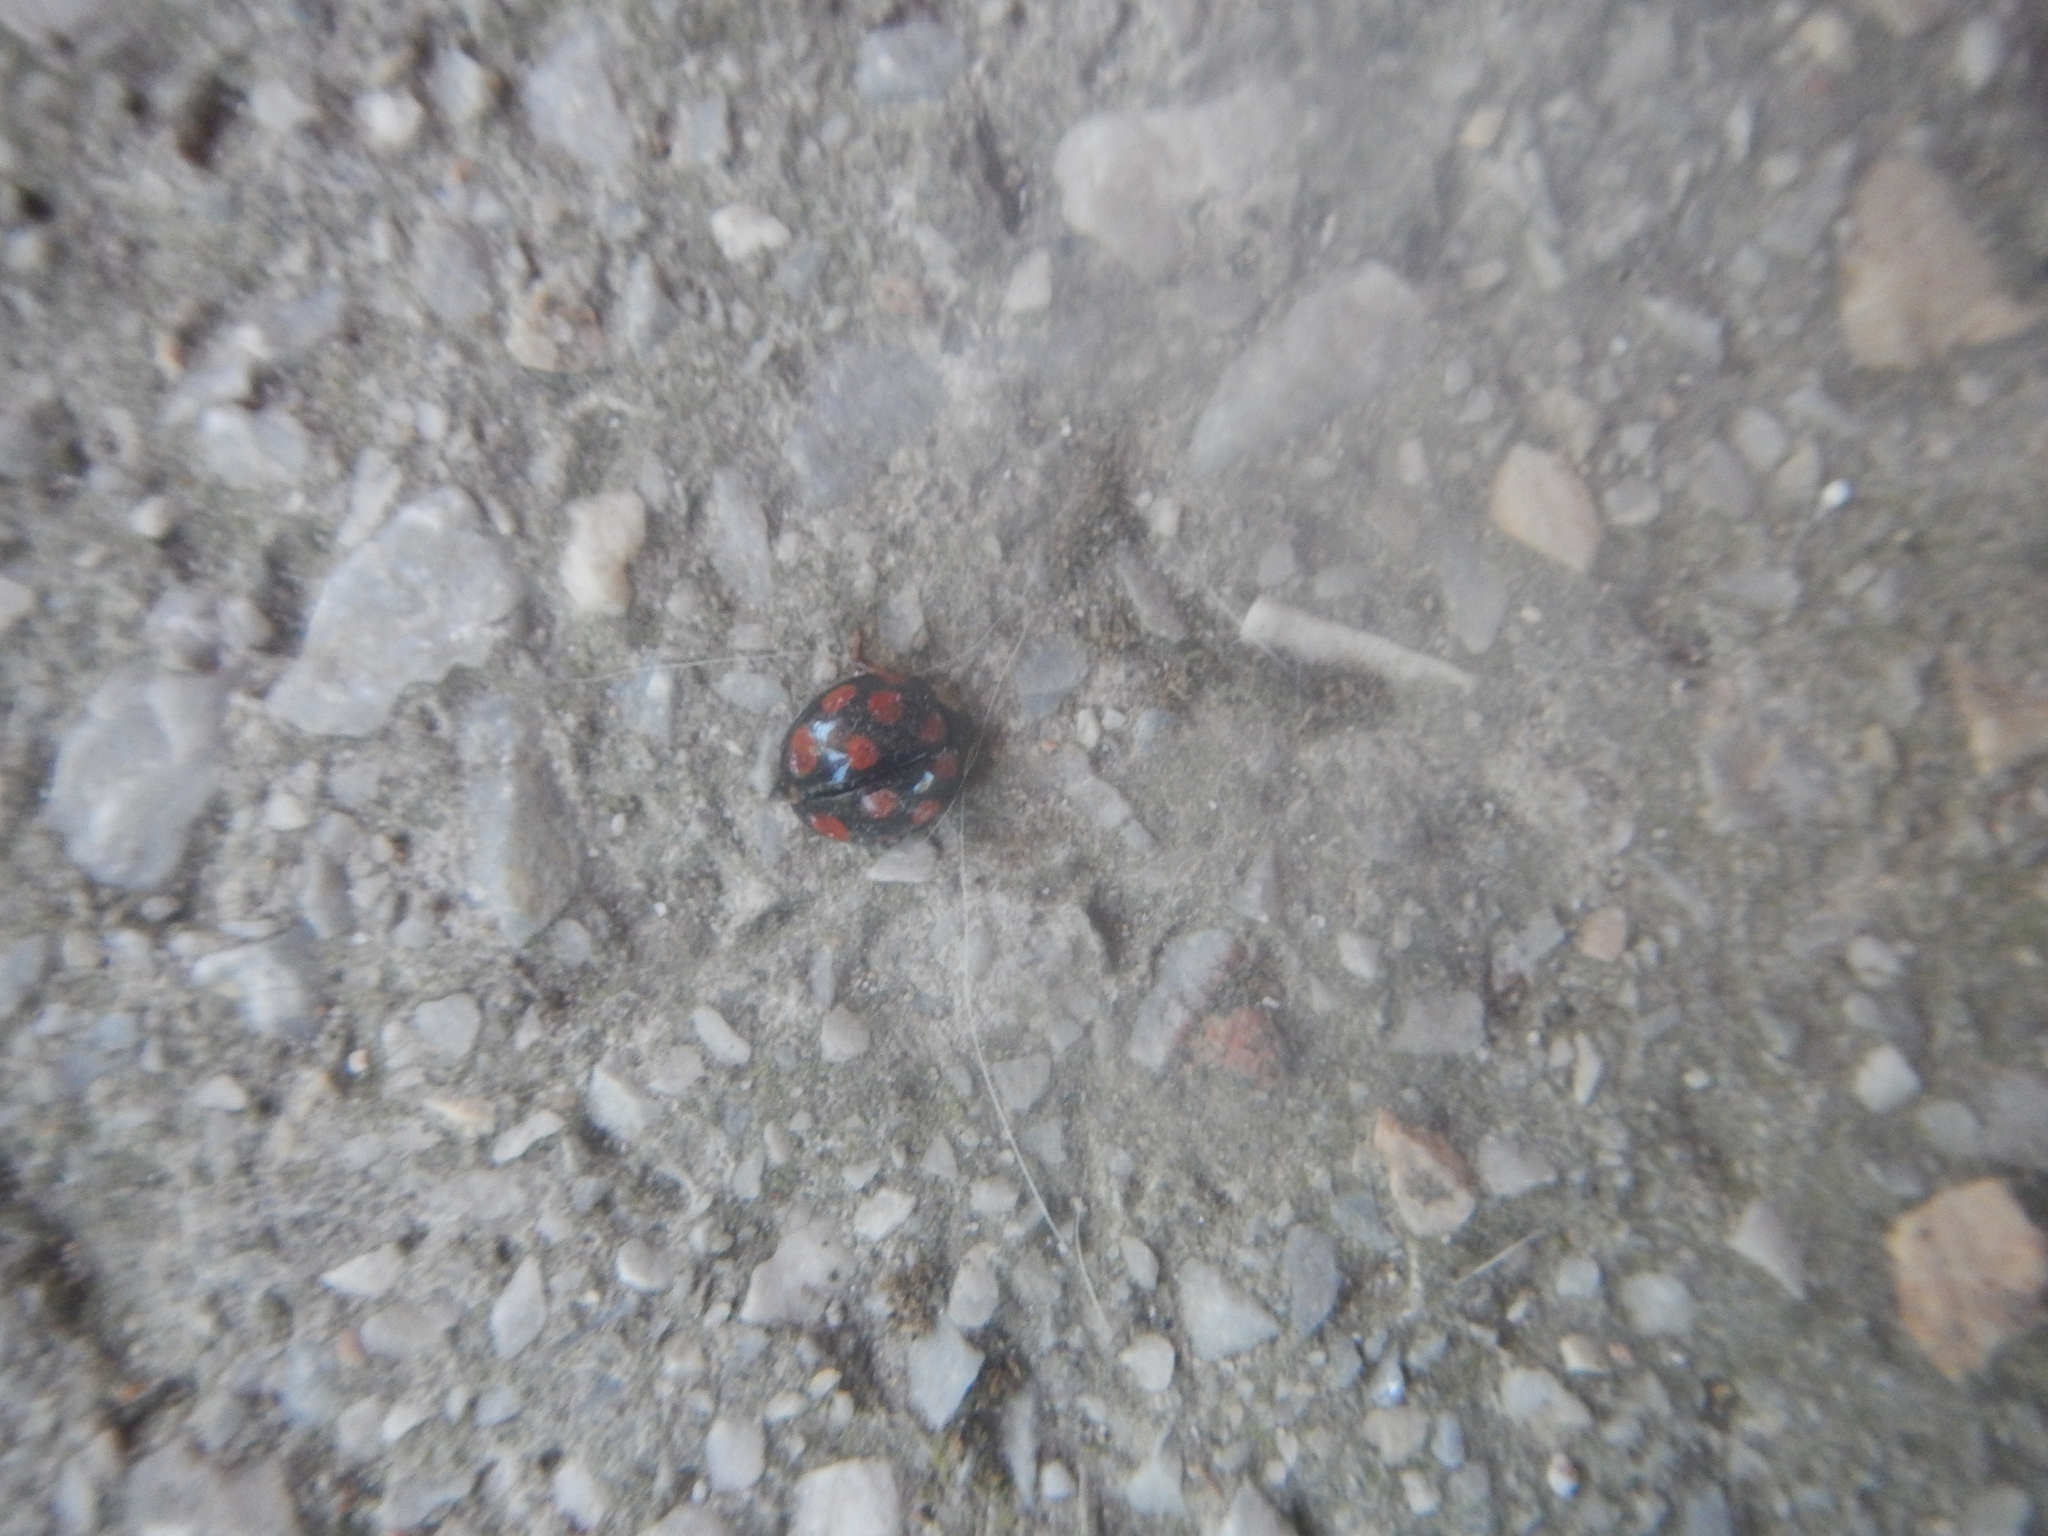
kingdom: Animalia
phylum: Arthropoda
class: Insecta
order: Coleoptera
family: Coccinellidae
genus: Harmonia
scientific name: Harmonia axyridis
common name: Harlequin ladybird
